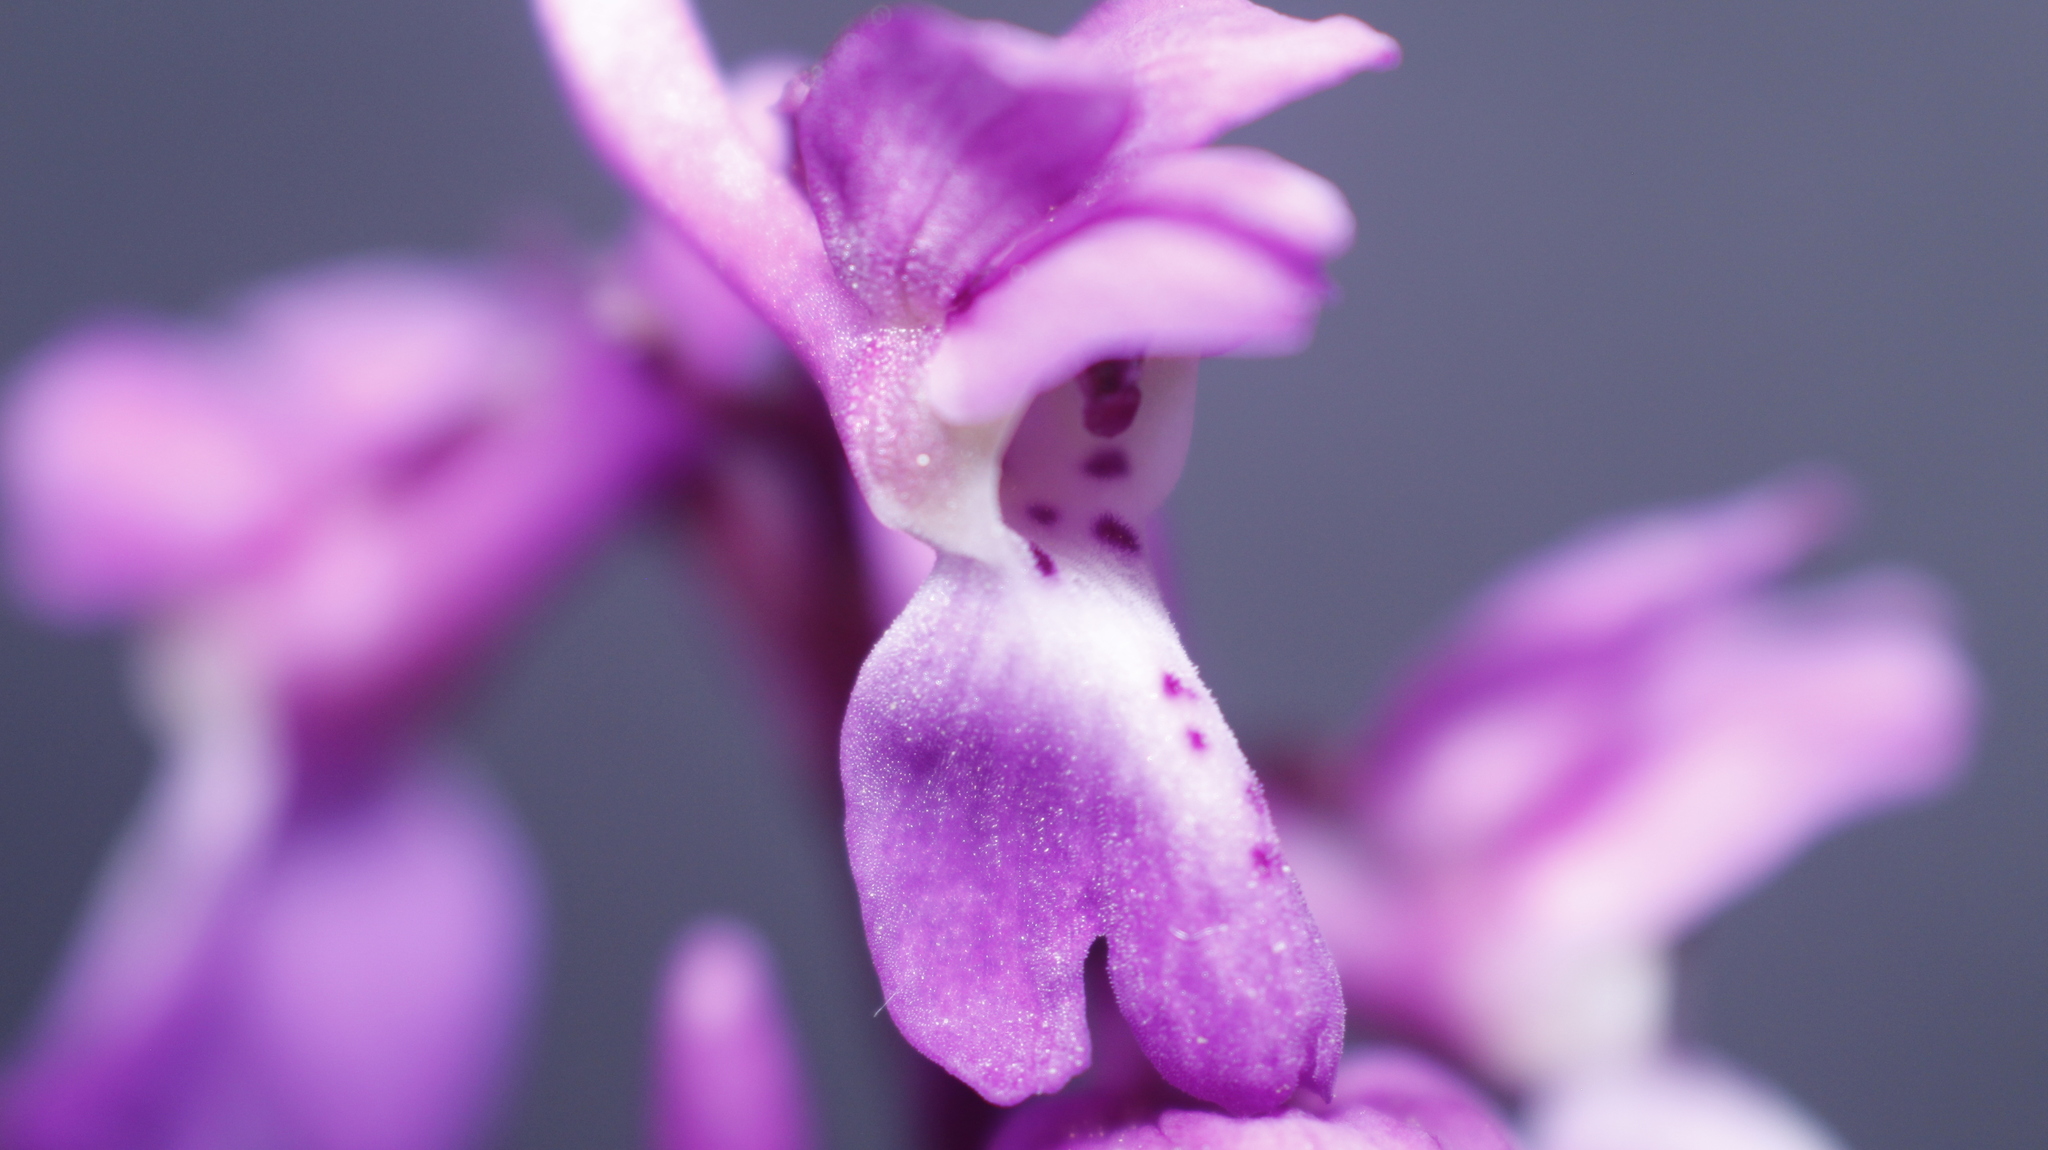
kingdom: Plantae
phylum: Tracheophyta
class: Liliopsida
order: Asparagales
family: Orchidaceae
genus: Orchis
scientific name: Orchis mascula
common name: Early-purple orchid
